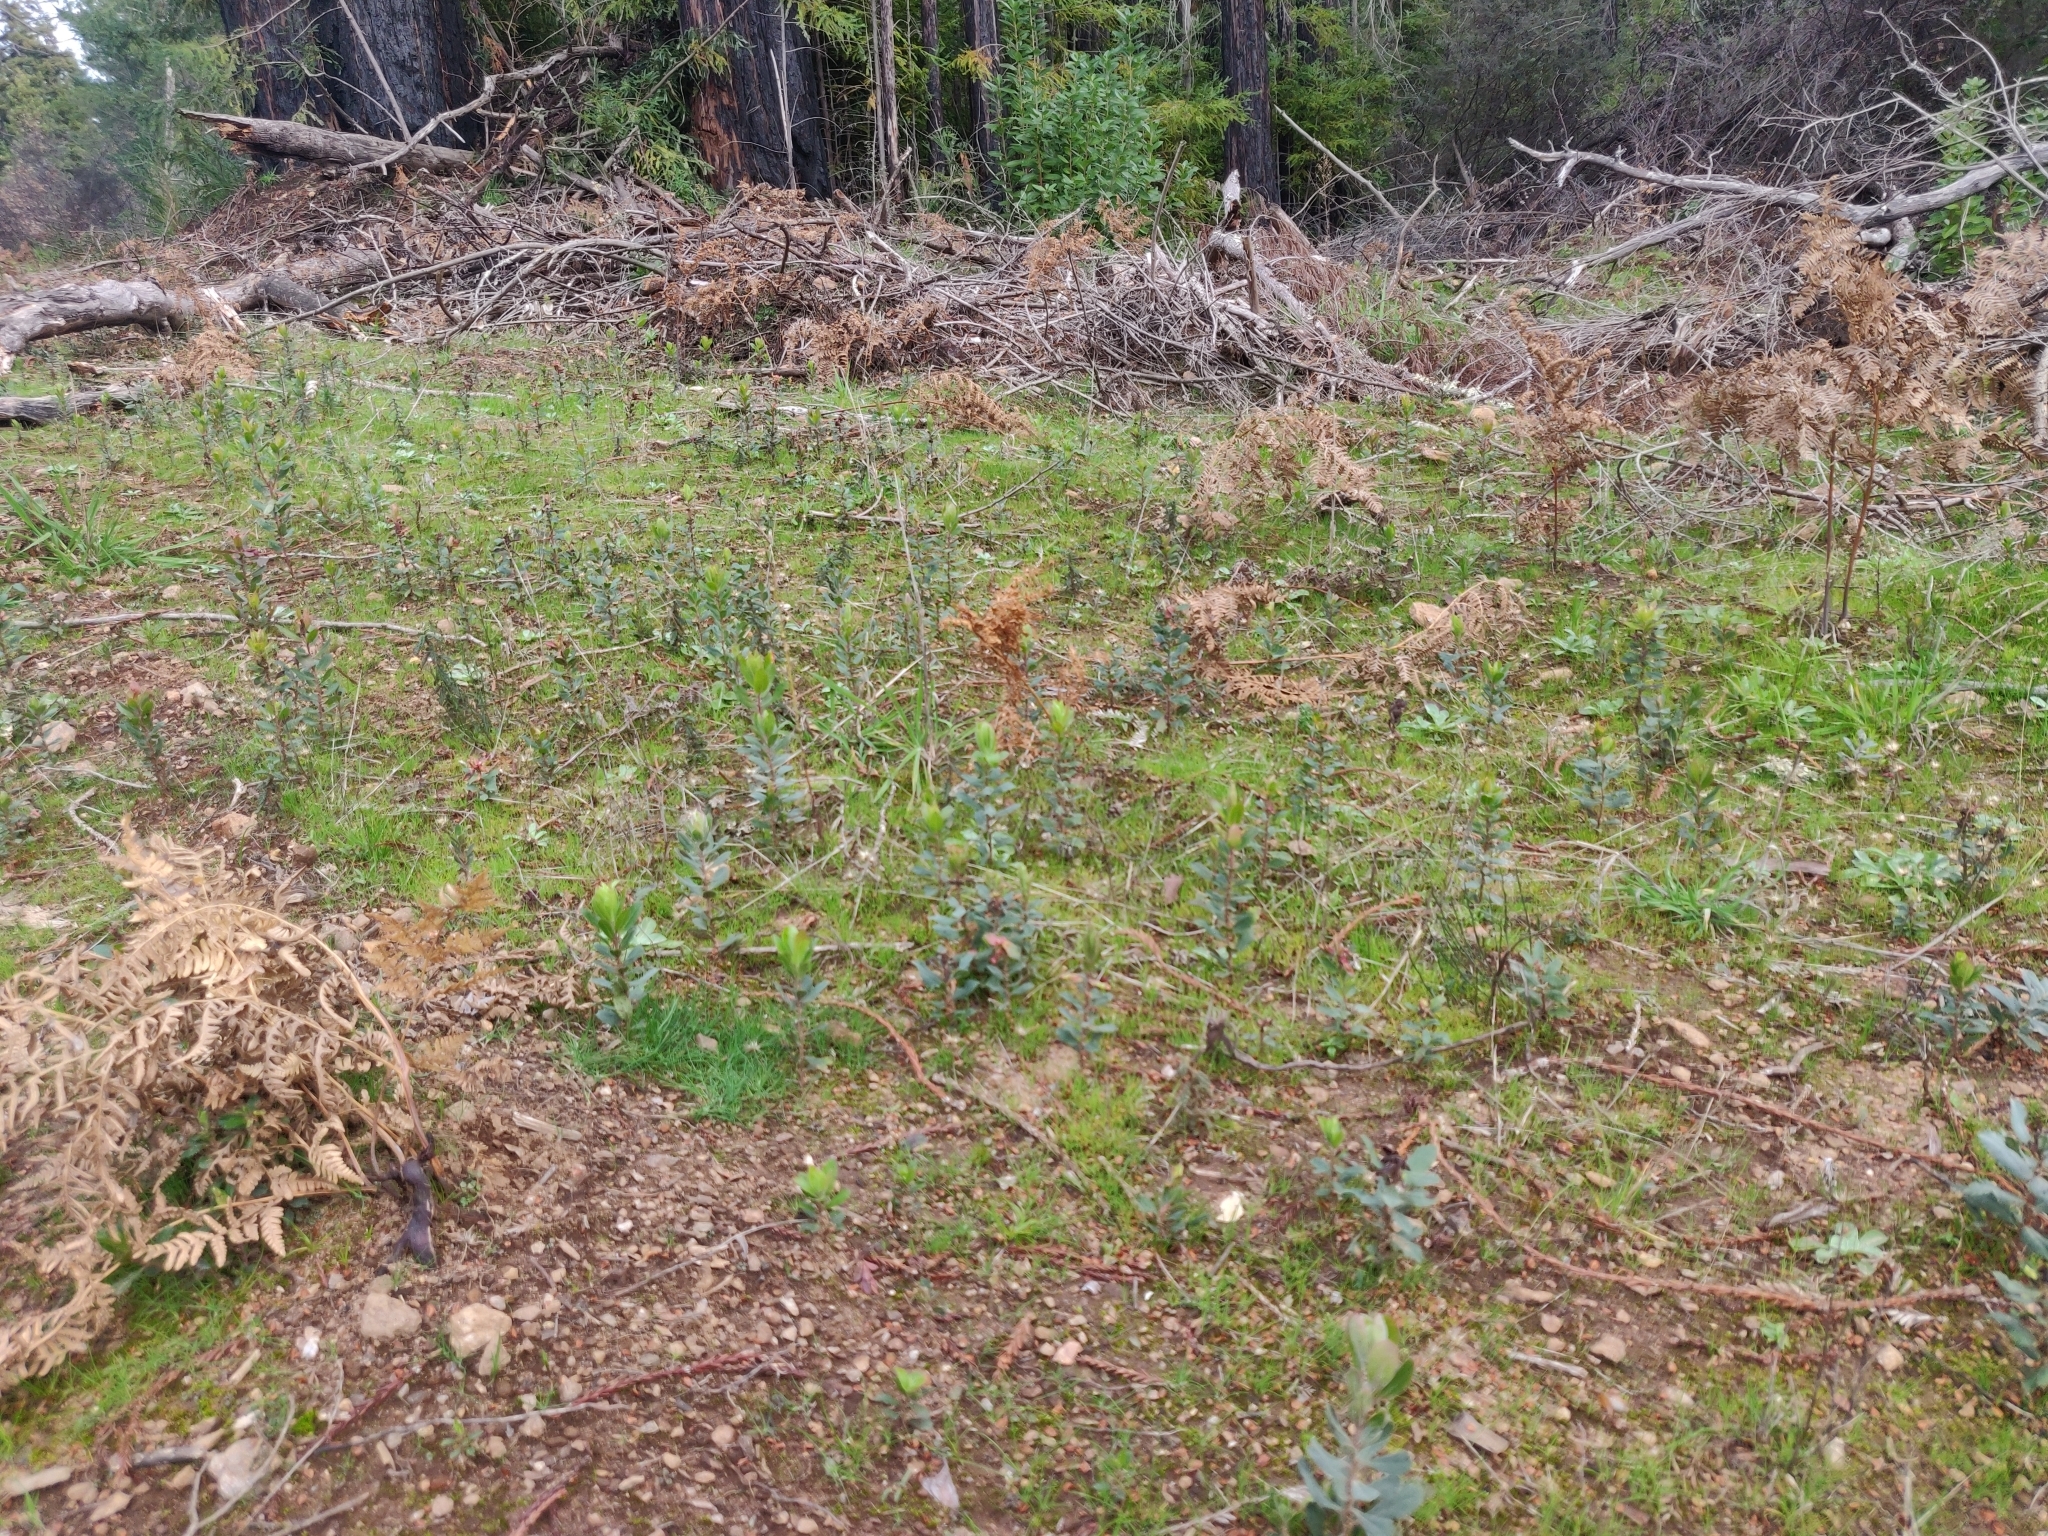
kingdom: Plantae
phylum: Tracheophyta
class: Magnoliopsida
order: Ericales
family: Ericaceae
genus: Arctostaphylos
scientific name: Arctostaphylos andersonii
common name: Santa cruz manzanita
